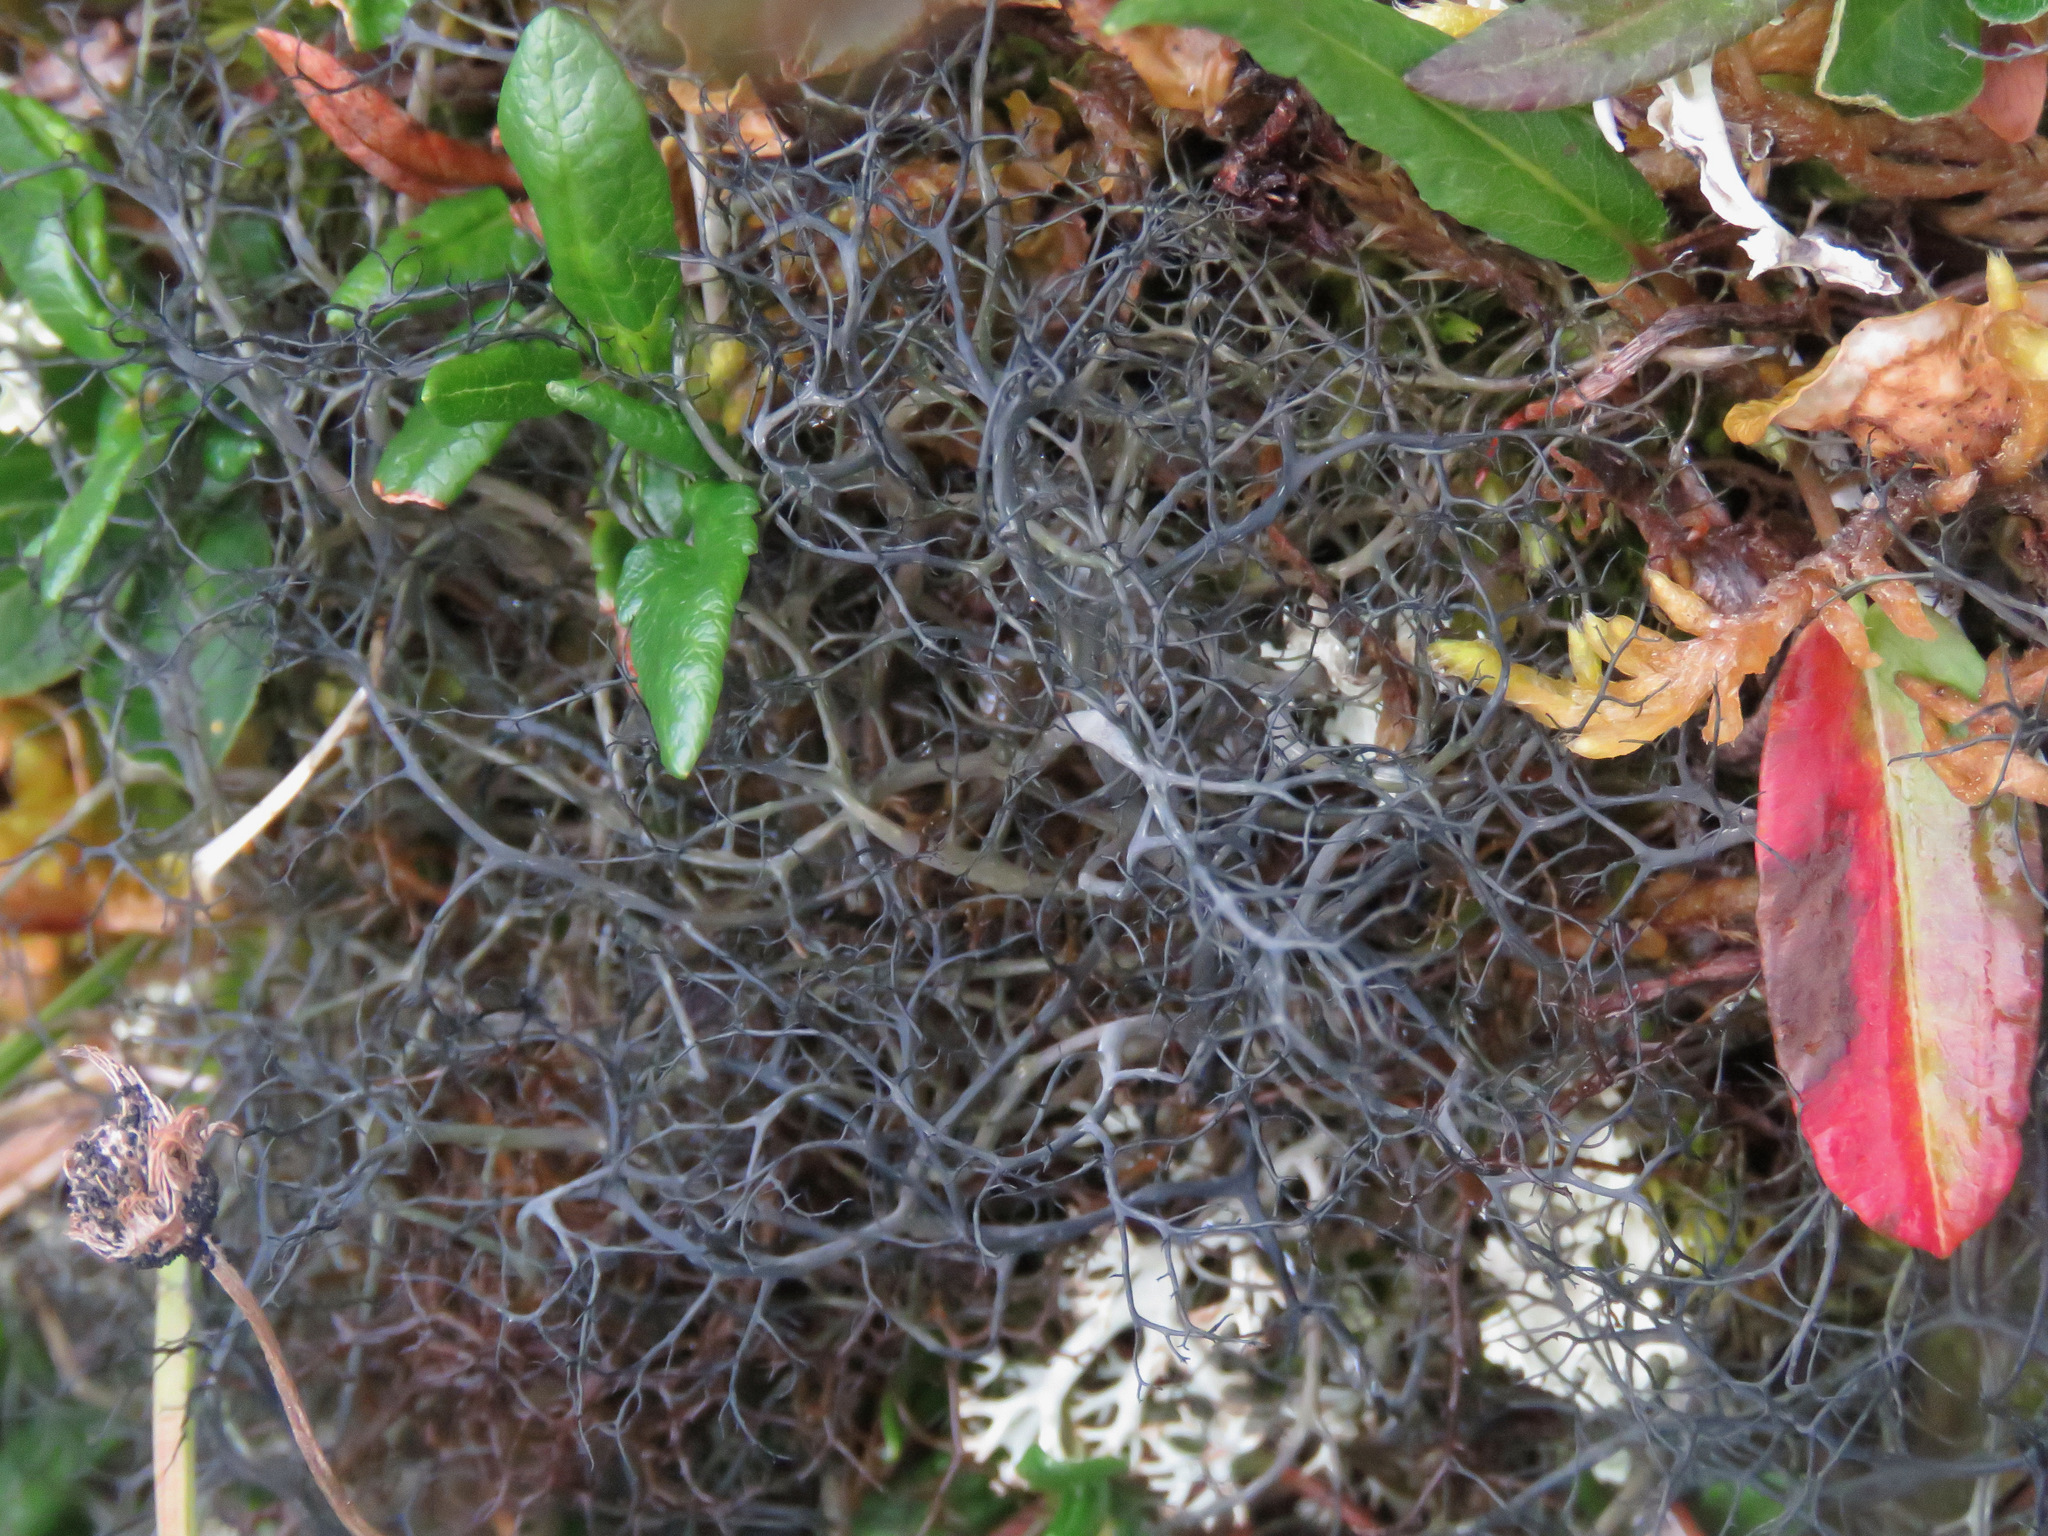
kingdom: Fungi
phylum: Ascomycota
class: Lecanoromycetes
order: Lecanorales
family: Parmeliaceae
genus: Gowardia
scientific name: Gowardia nigricans
